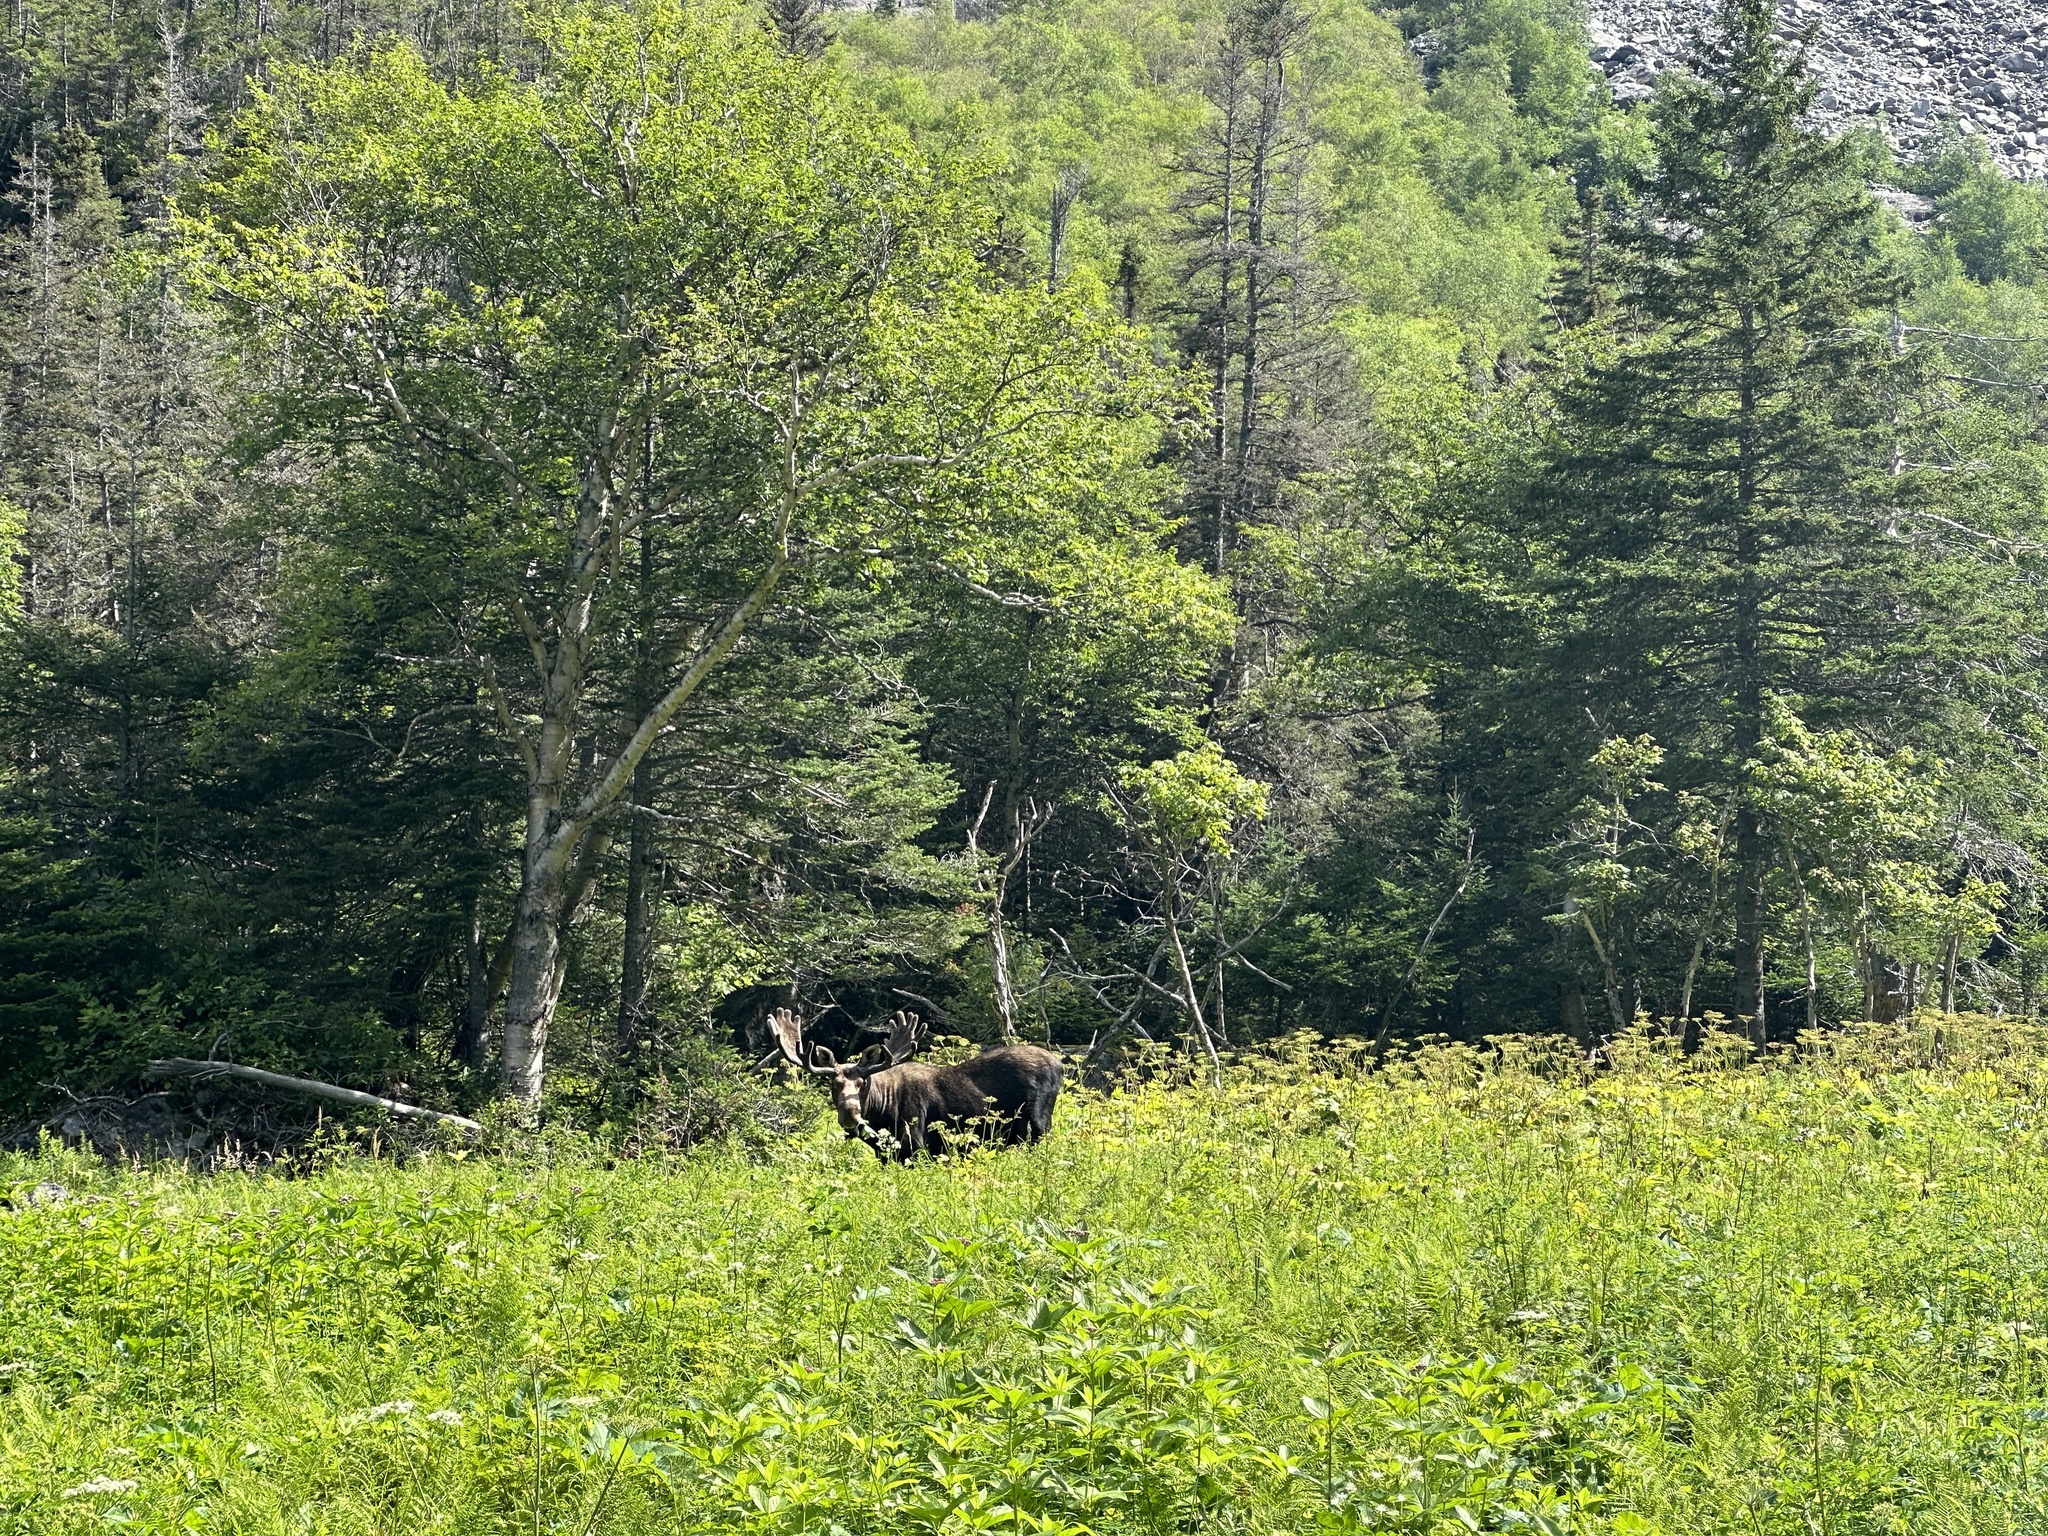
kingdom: Animalia
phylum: Chordata
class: Mammalia
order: Artiodactyla
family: Cervidae
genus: Alces
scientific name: Alces alces
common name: Moose
